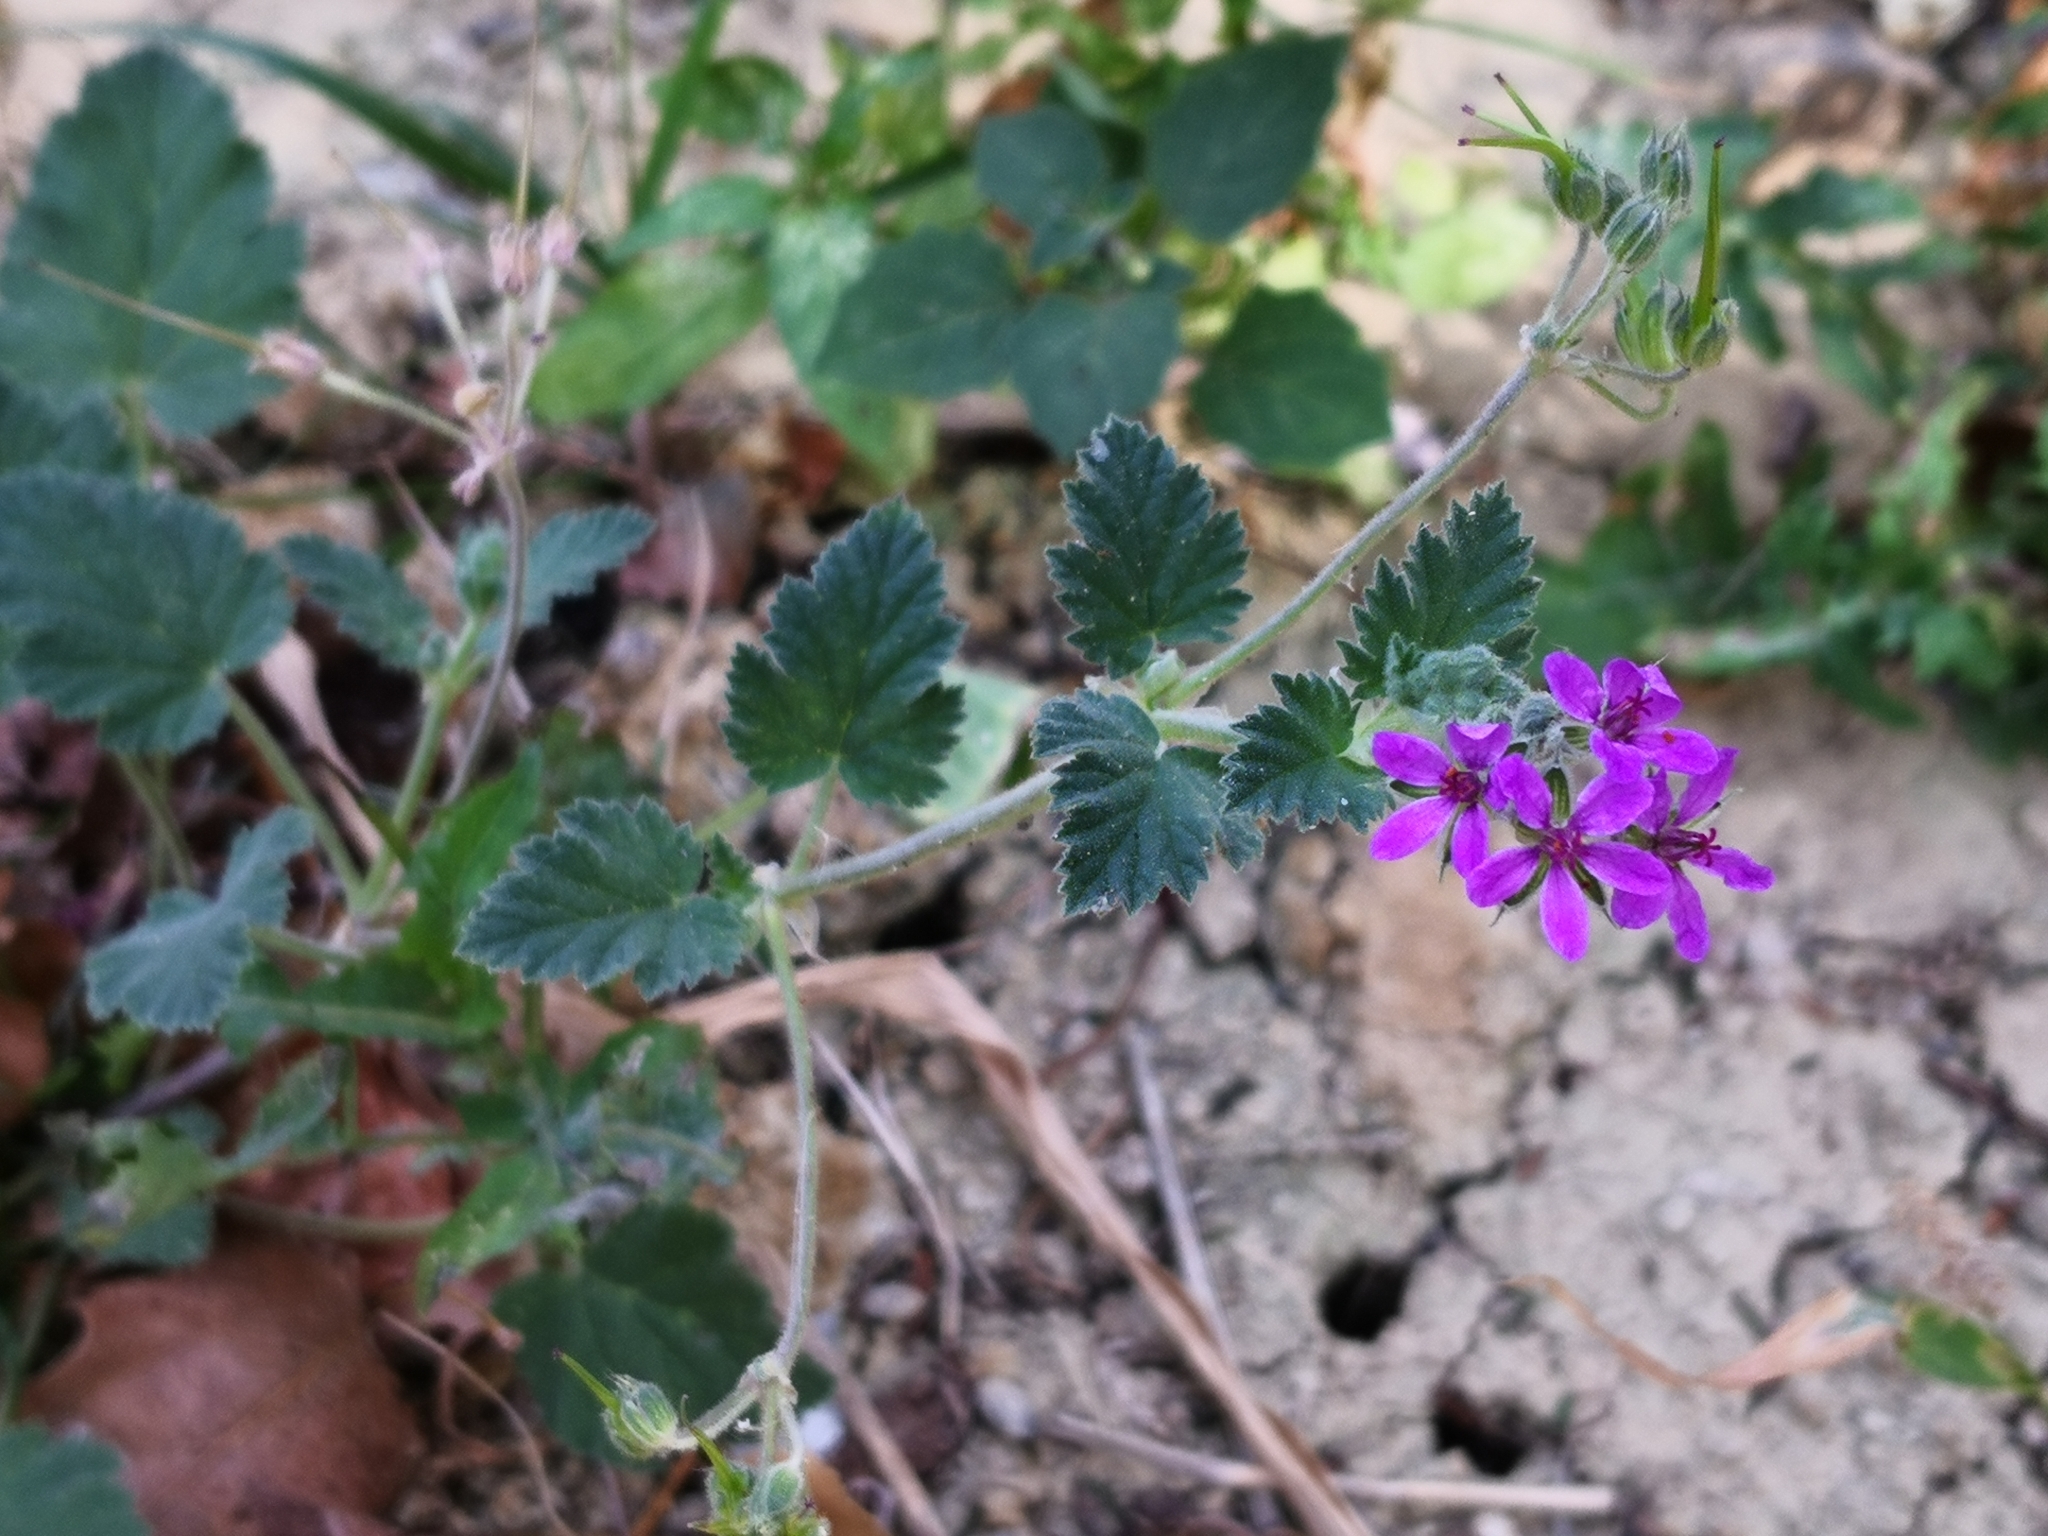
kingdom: Plantae
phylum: Tracheophyta
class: Magnoliopsida
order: Geraniales
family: Geraniaceae
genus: Erodium
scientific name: Erodium moschatum
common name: Musk stork's-bill
